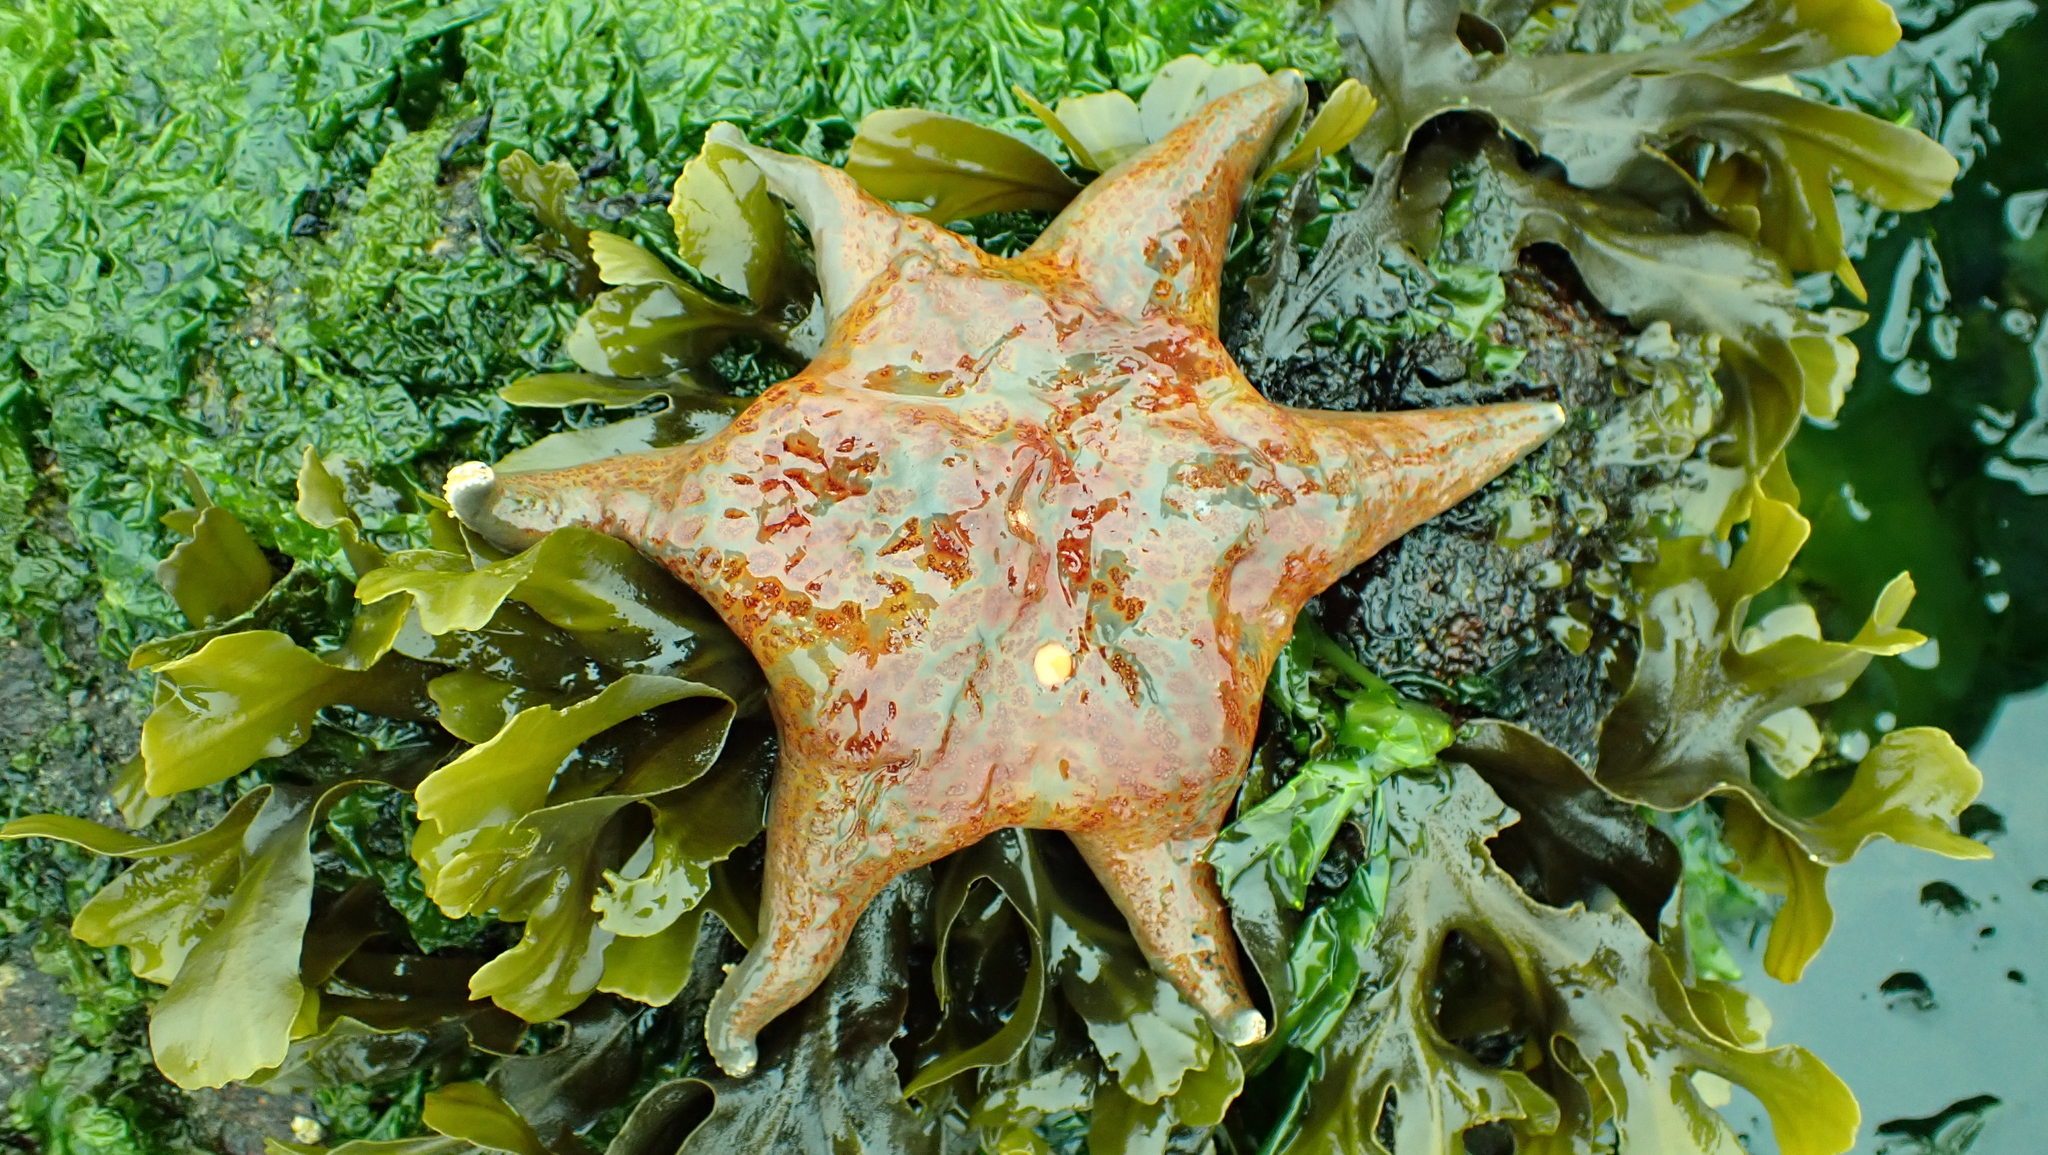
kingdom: Animalia
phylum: Echinodermata
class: Asteroidea
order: Valvatida
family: Asteropseidae
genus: Dermasterias
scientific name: Dermasterias imbricata
